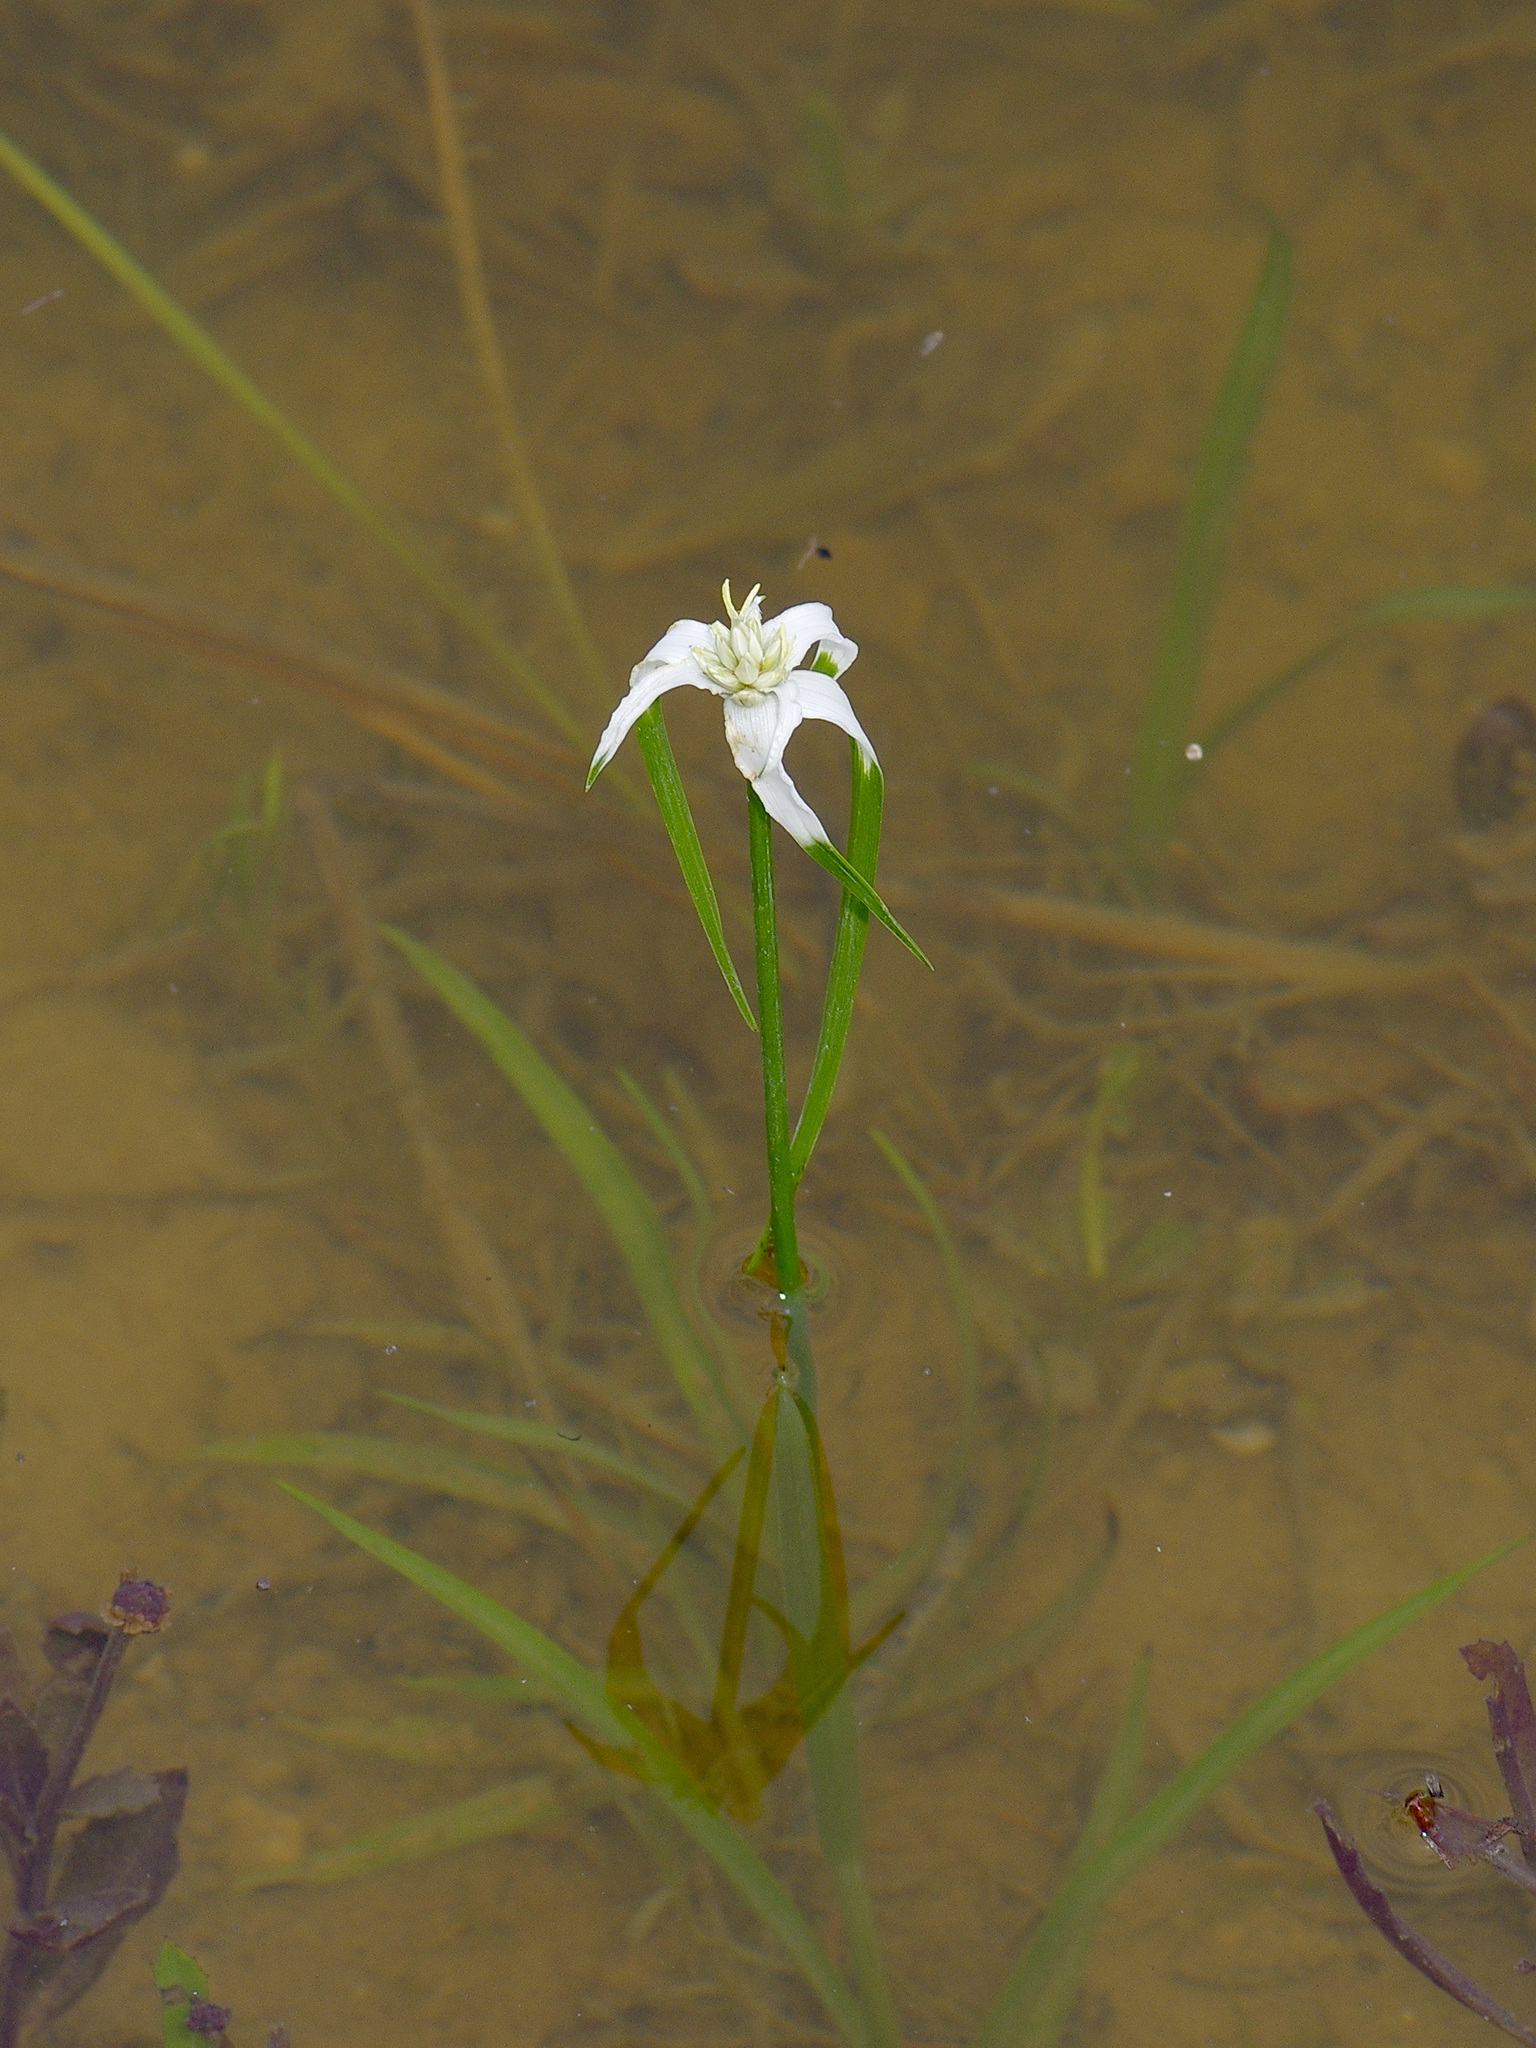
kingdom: Plantae
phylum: Tracheophyta
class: Liliopsida
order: Poales
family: Cyperaceae
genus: Rhynchospora
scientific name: Rhynchospora colorata
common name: Star sedge
